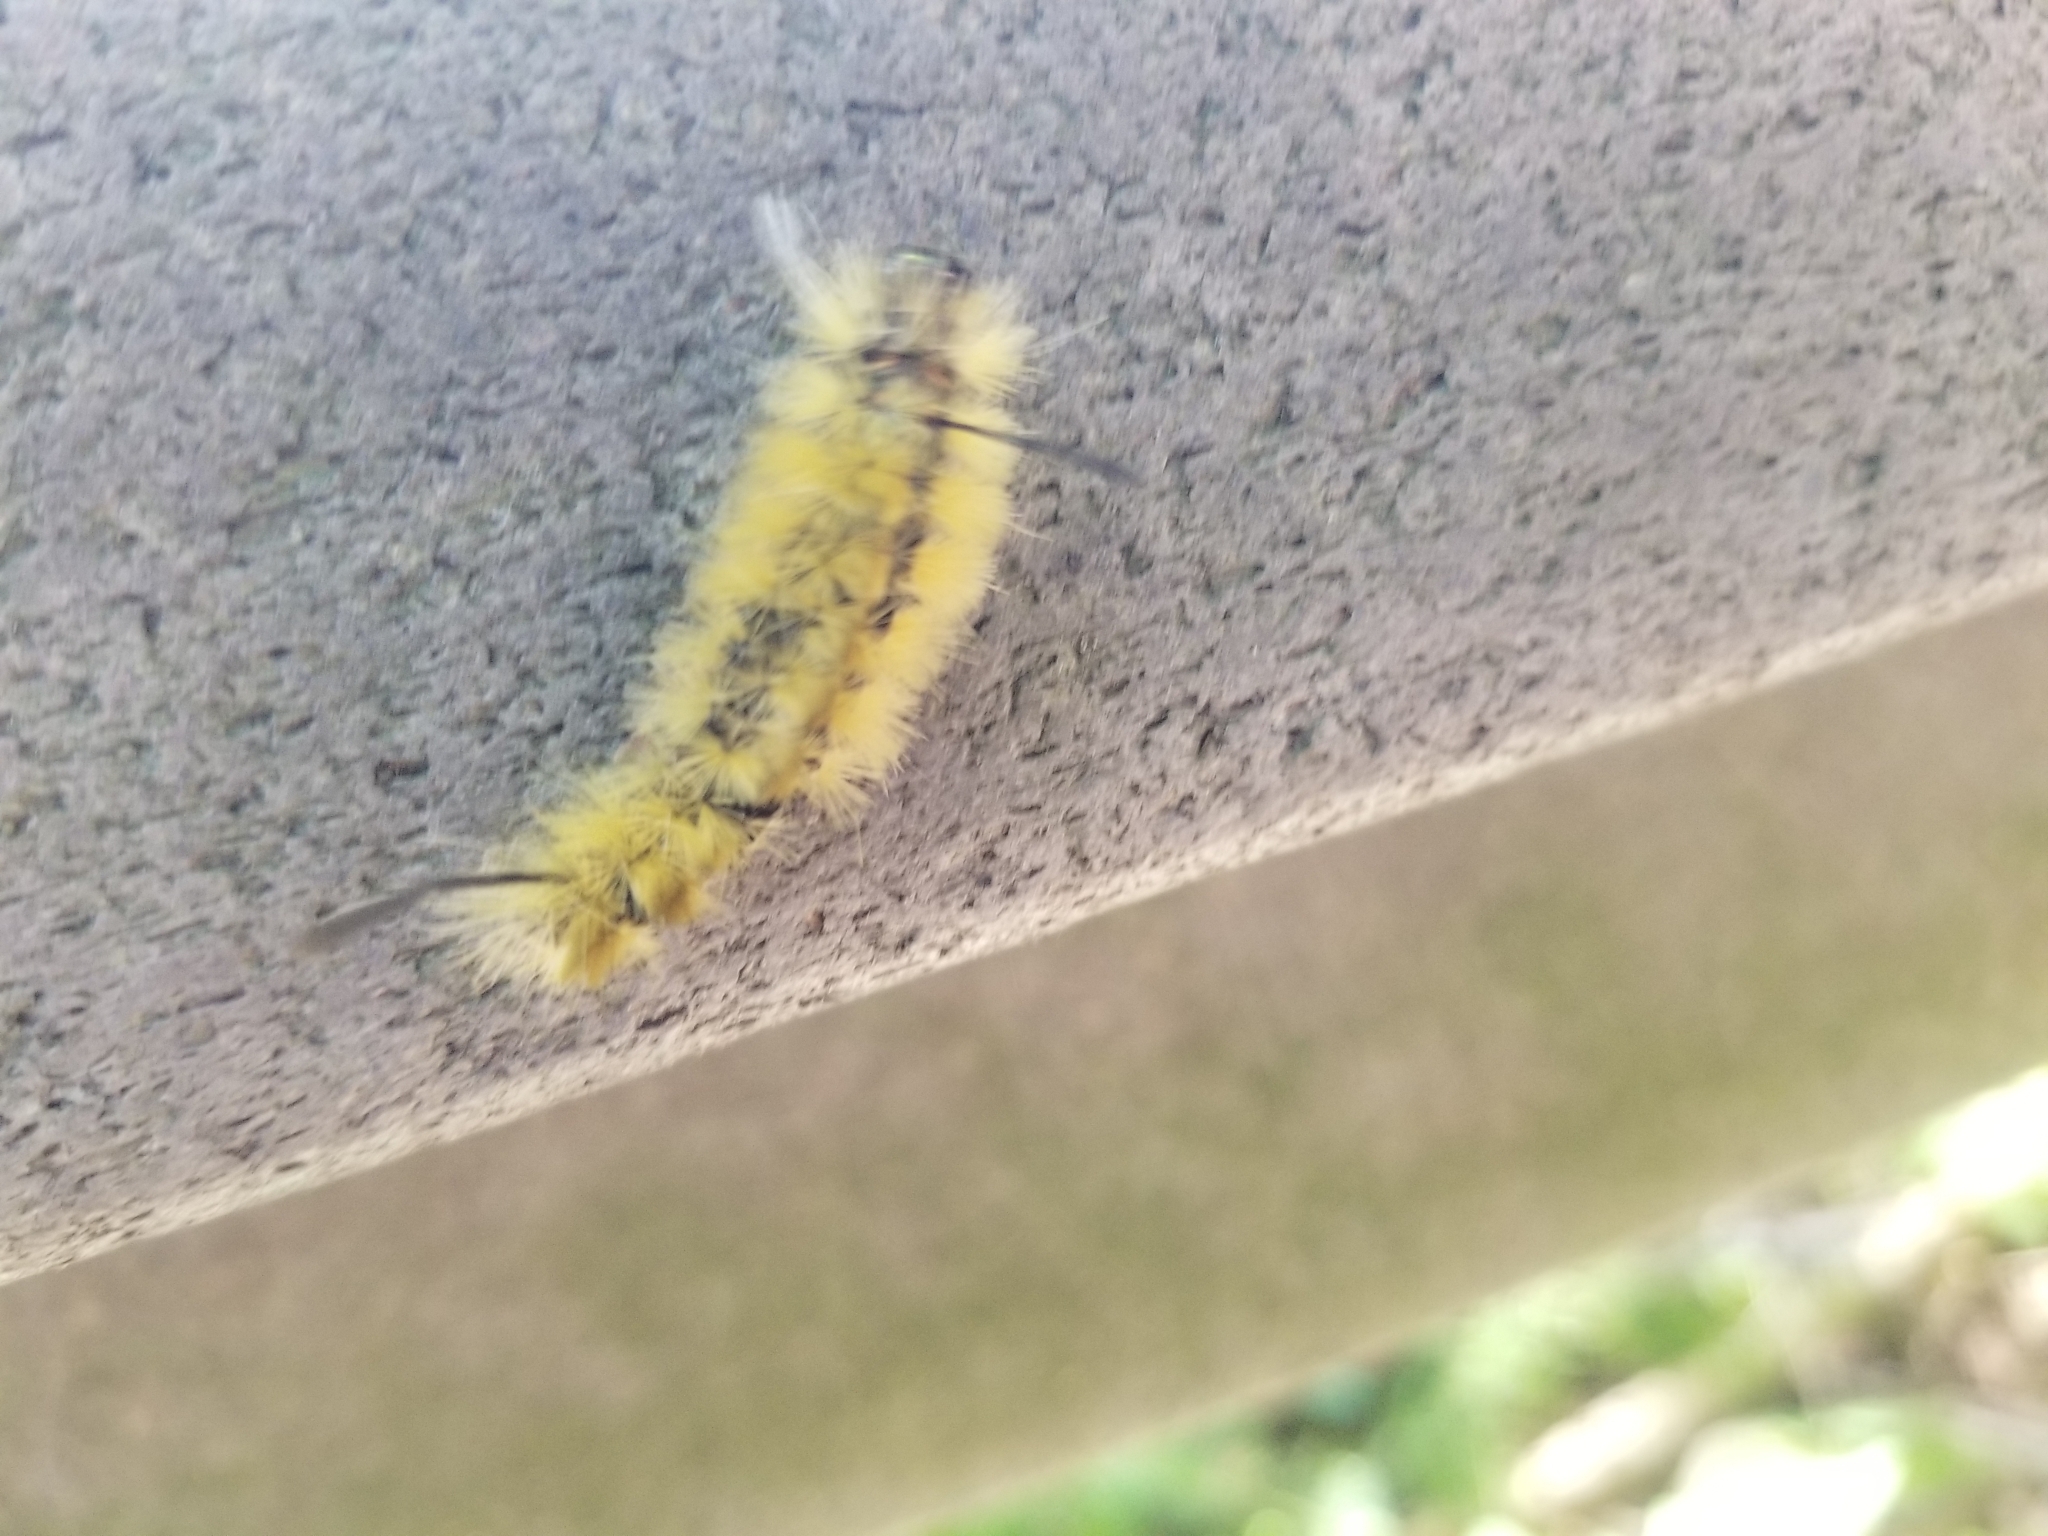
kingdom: Animalia
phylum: Arthropoda
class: Insecta
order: Lepidoptera
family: Erebidae
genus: Halysidota
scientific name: Halysidota tessellaris
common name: Banded tussock moth
